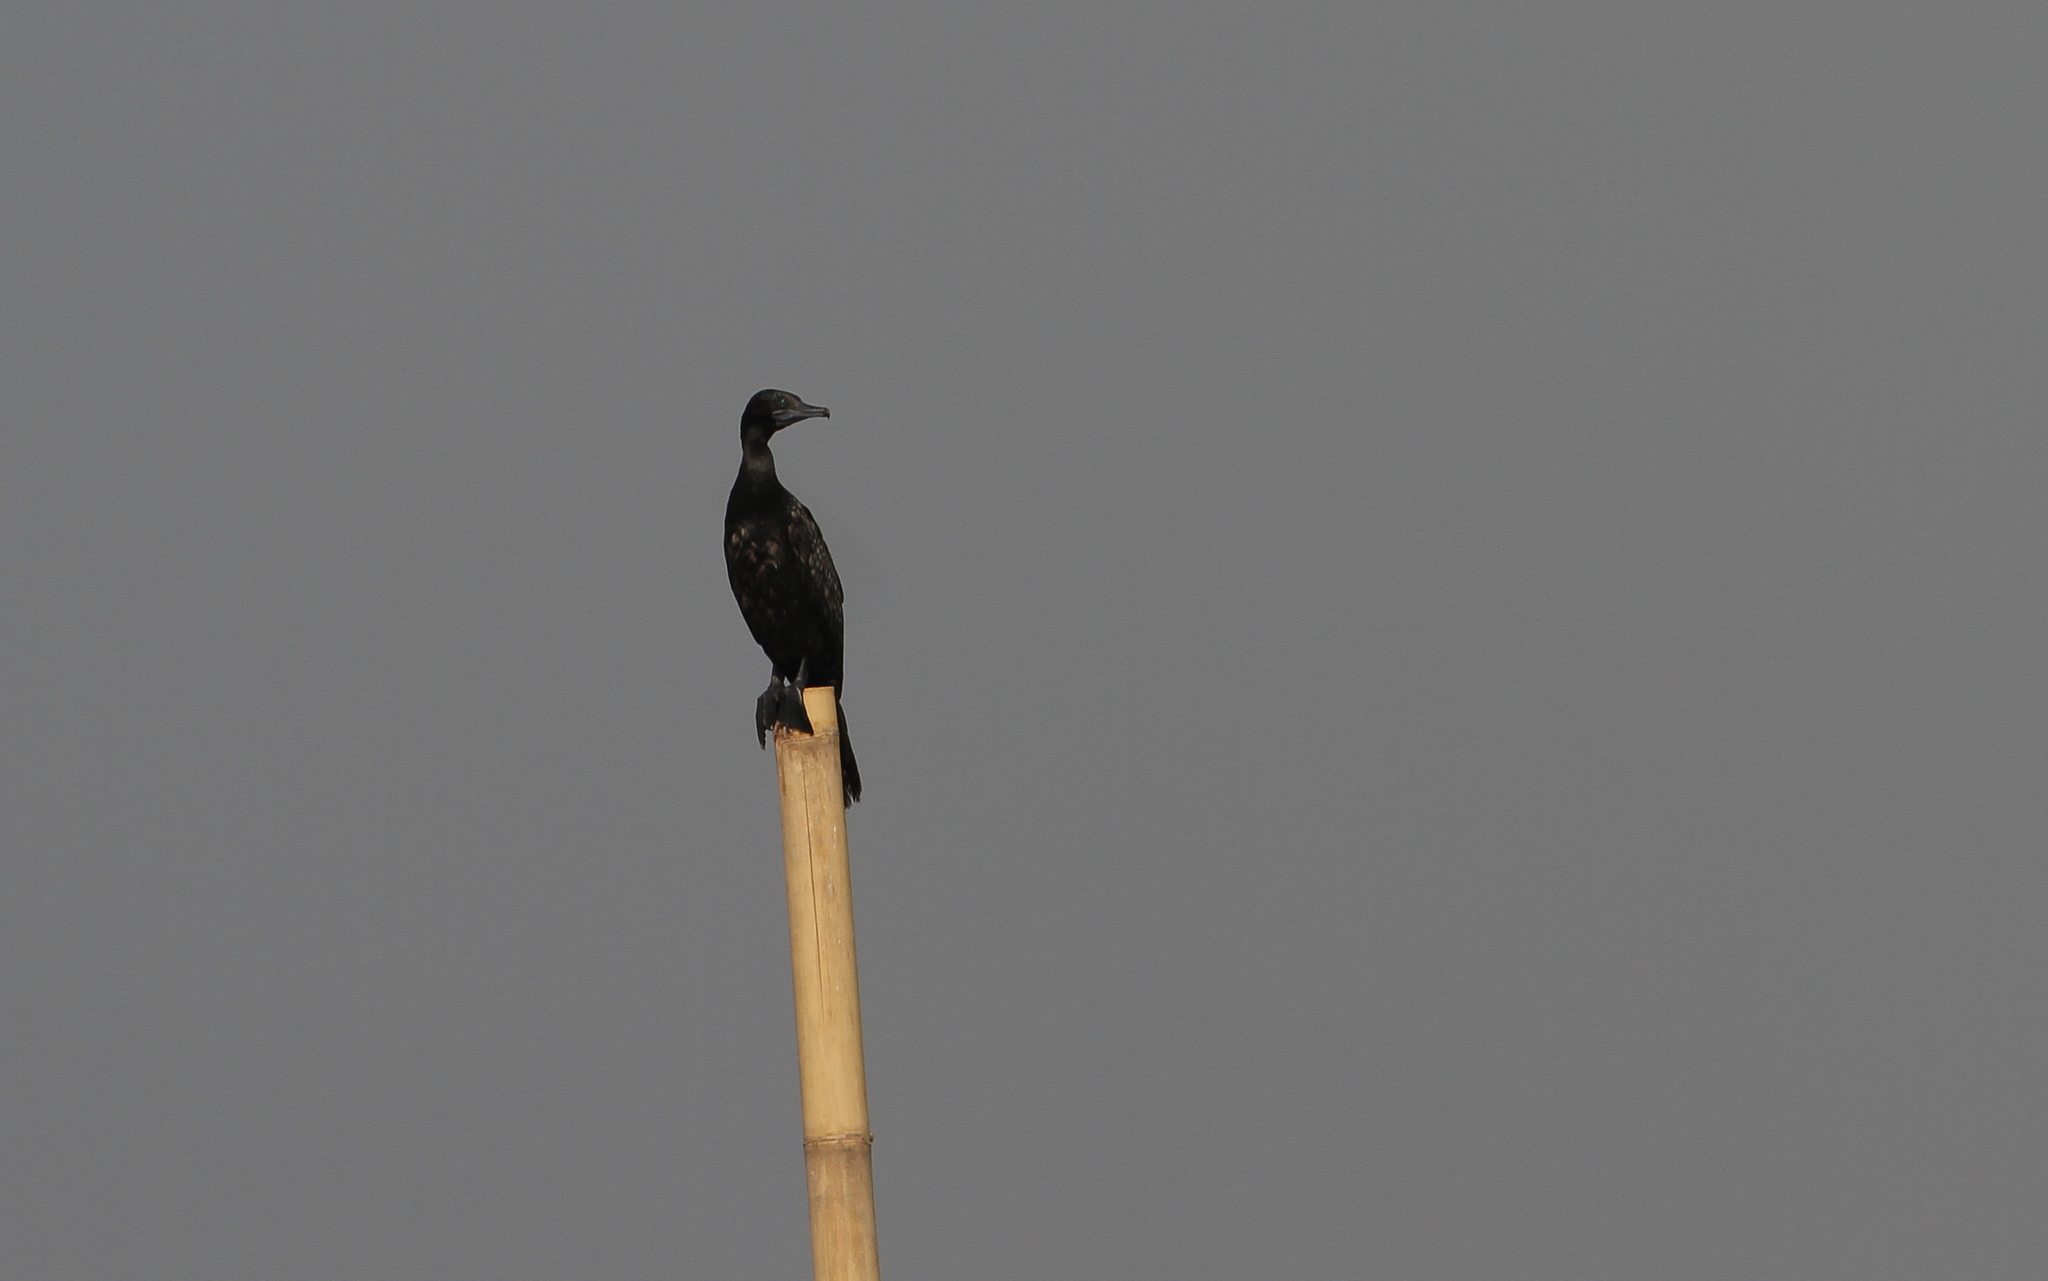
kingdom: Animalia
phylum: Chordata
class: Aves
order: Suliformes
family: Phalacrocoracidae
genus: Phalacrocorax
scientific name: Phalacrocorax sulcirostris
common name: Little black cormorant
